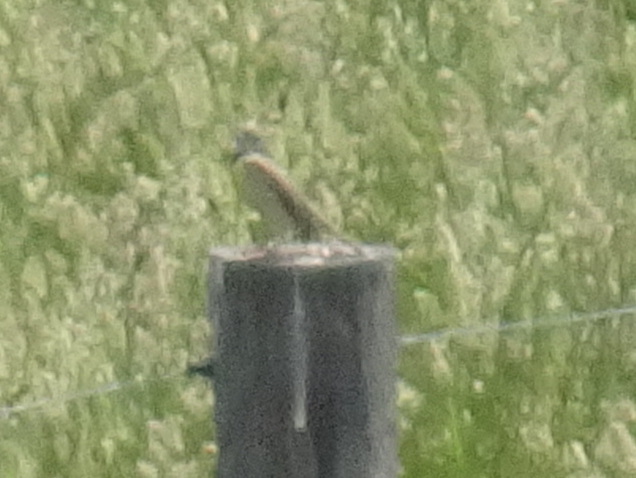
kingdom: Animalia
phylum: Chordata
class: Aves
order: Passeriformes
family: Cardinalidae
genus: Spiza
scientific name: Spiza americana
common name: Dickcissel
